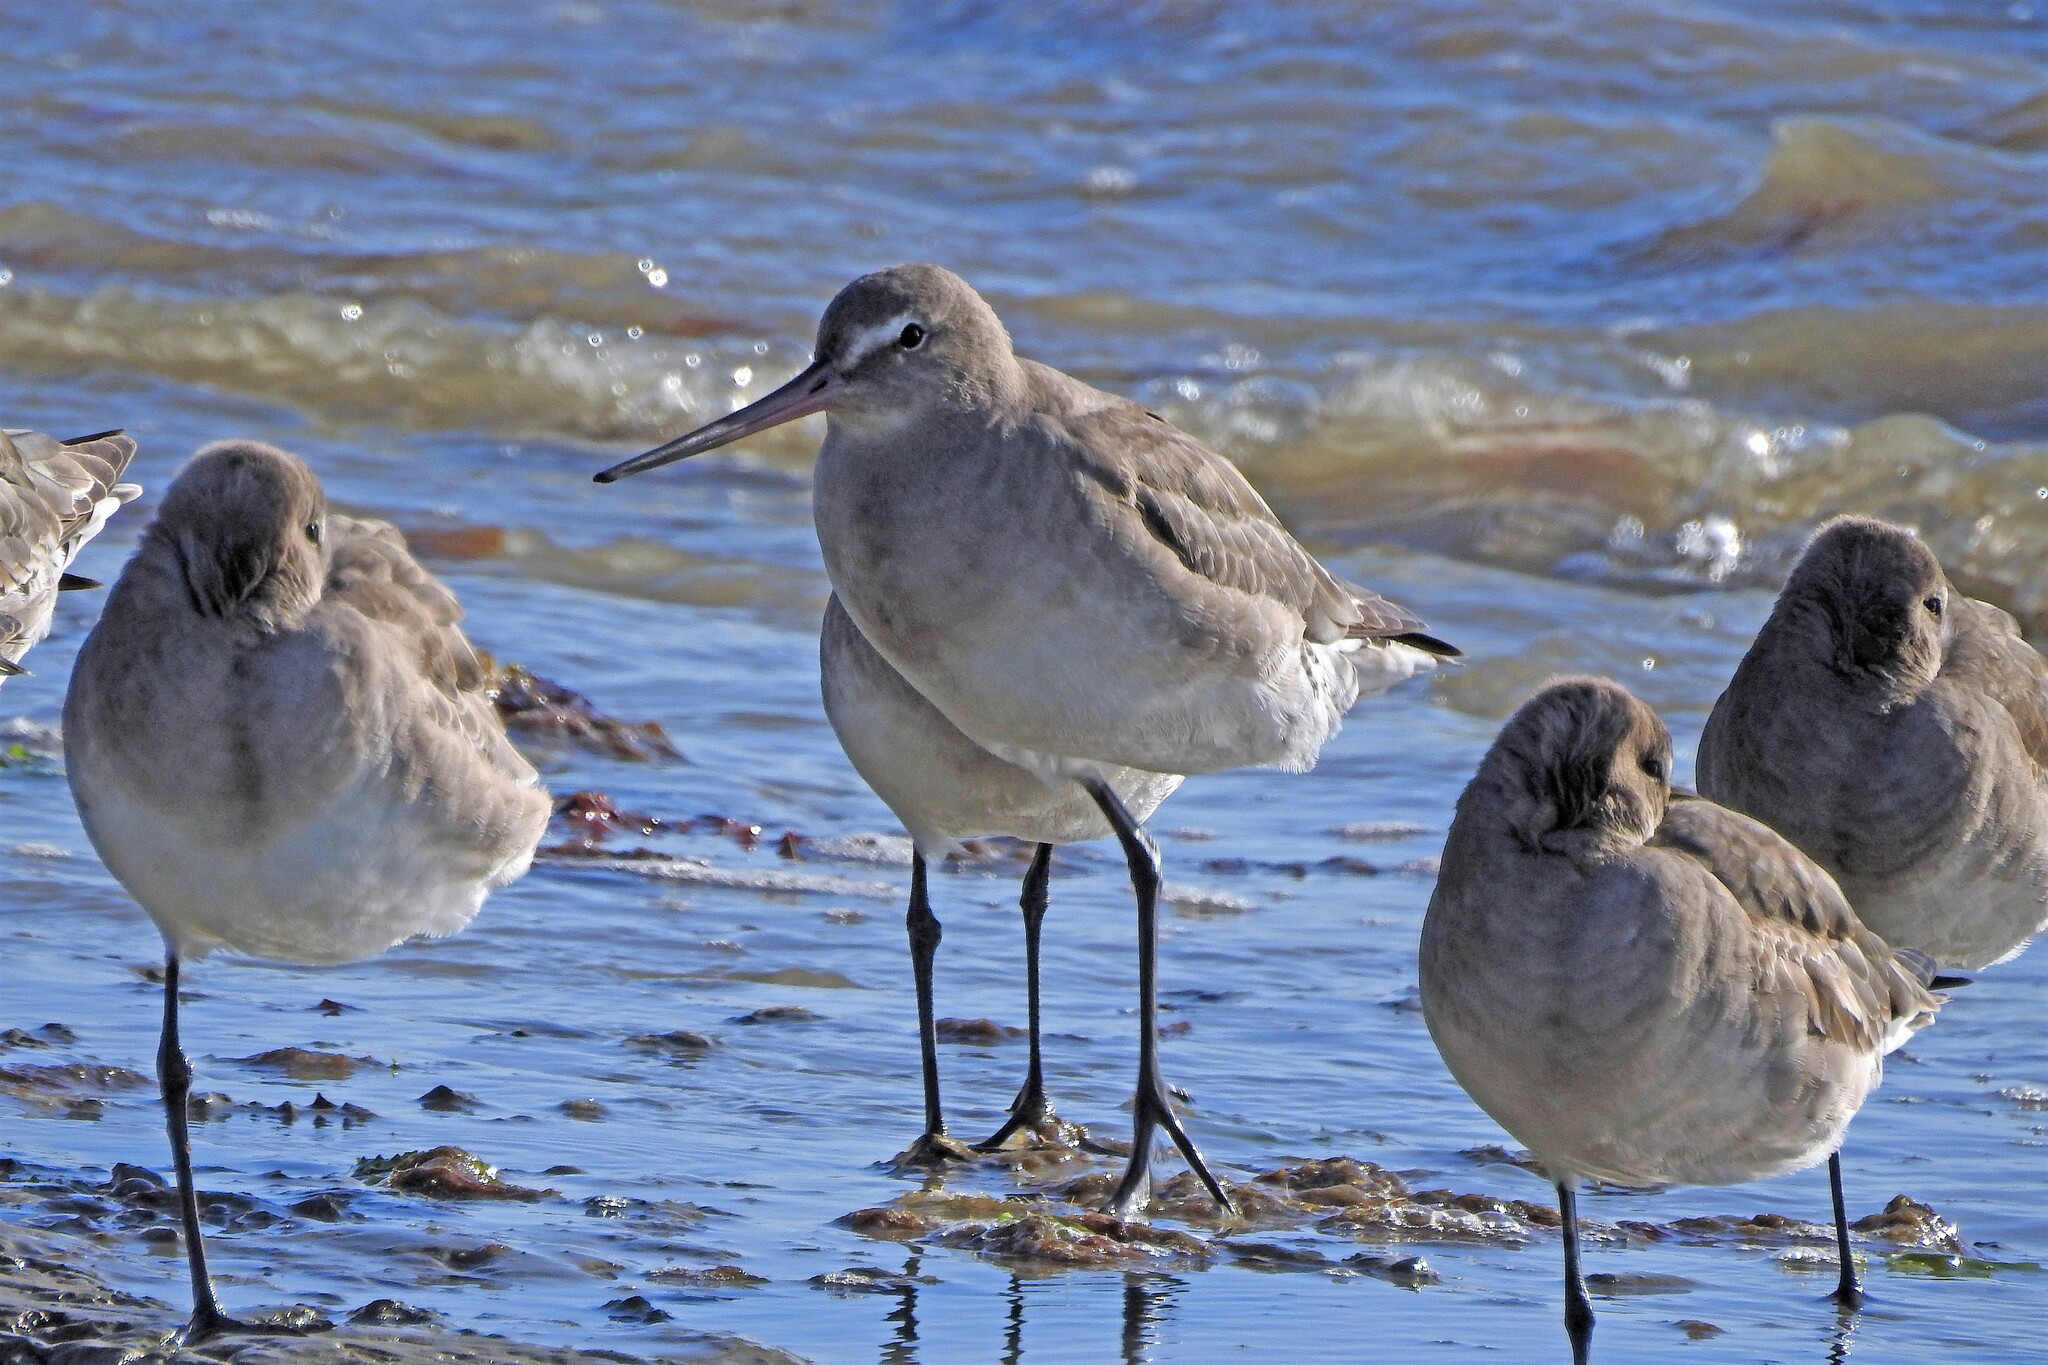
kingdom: Animalia
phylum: Chordata
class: Aves
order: Charadriiformes
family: Scolopacidae
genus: Limosa
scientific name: Limosa haemastica
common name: Hudsonian godwit
